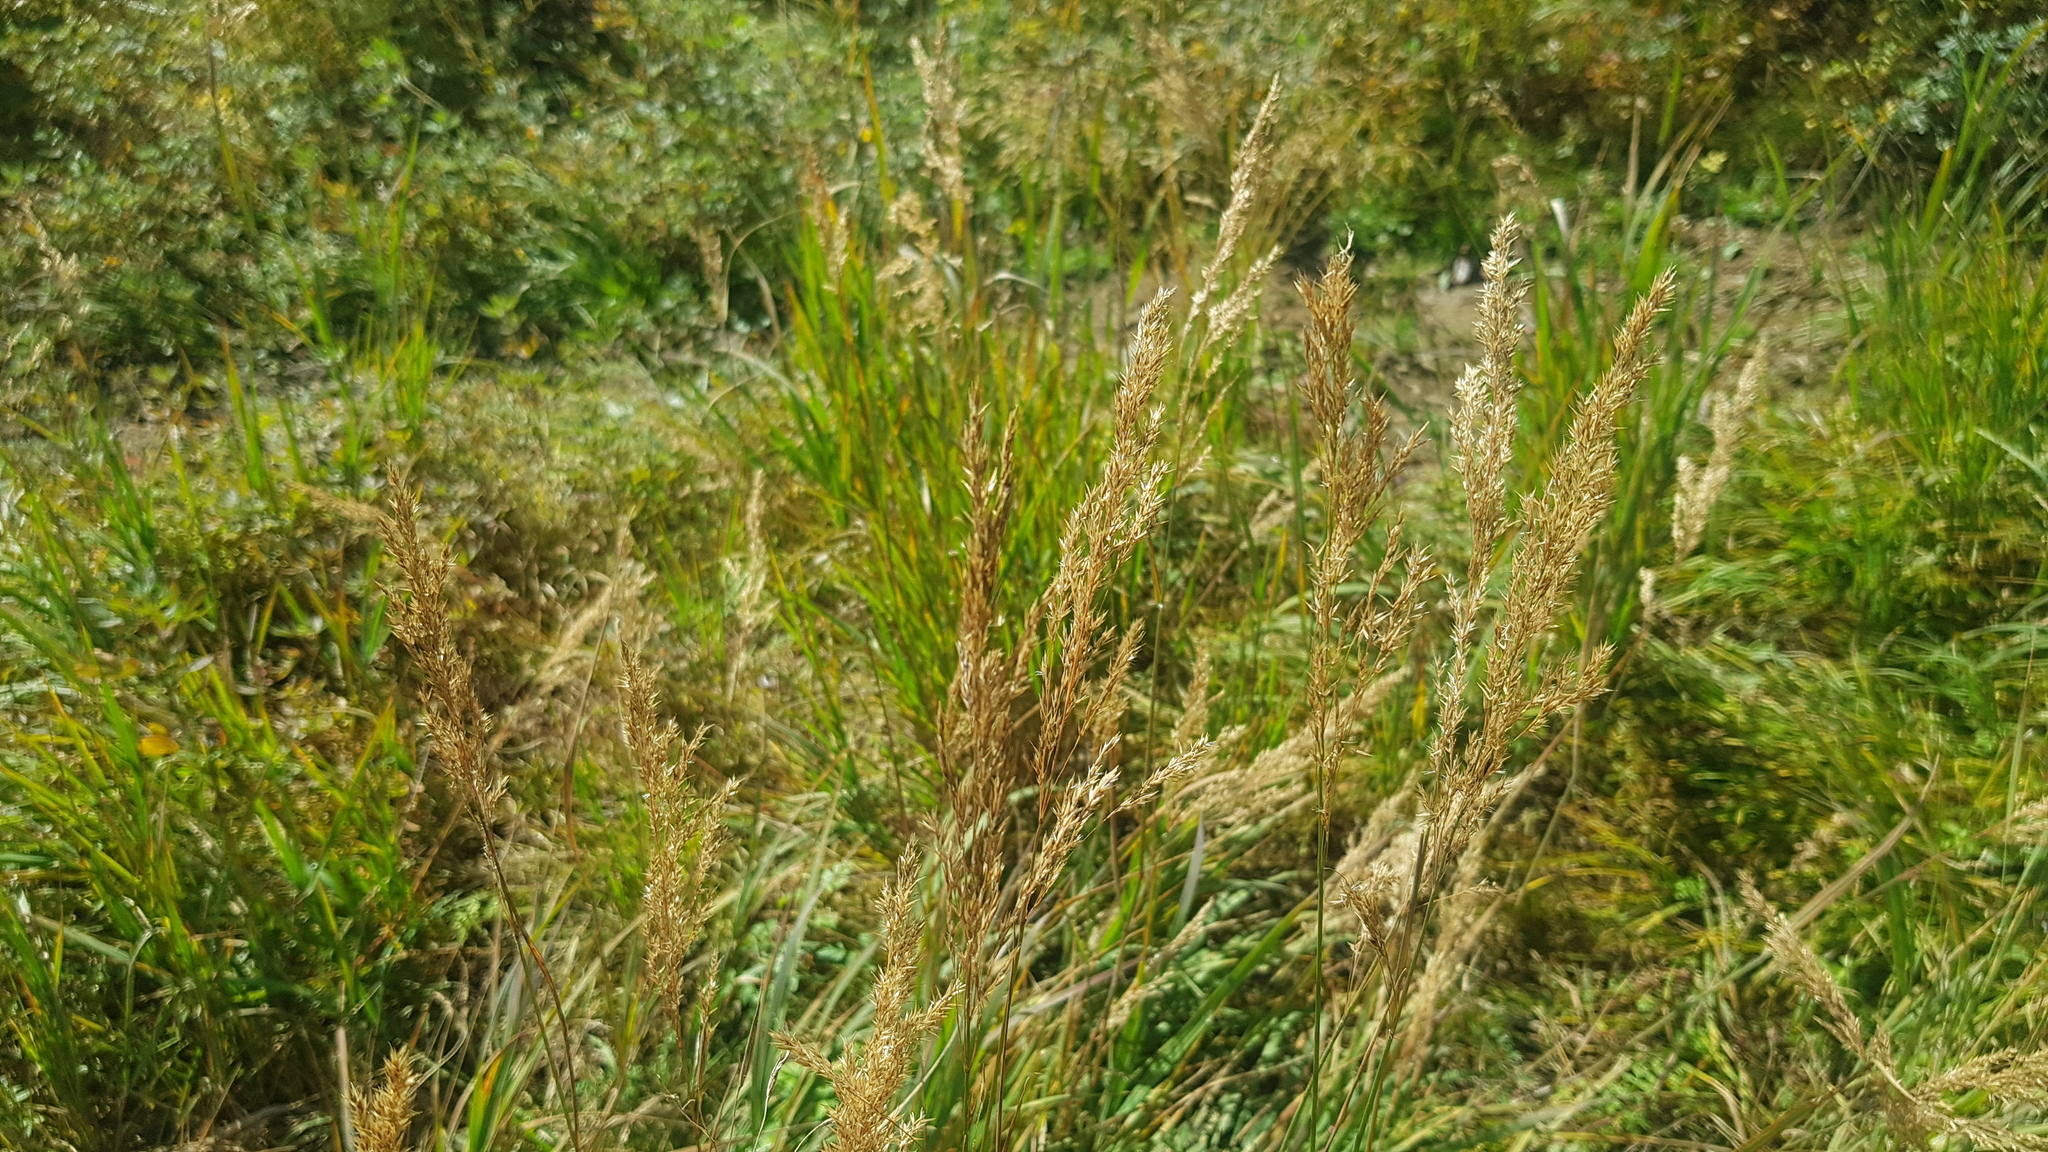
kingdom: Plantae
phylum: Tracheophyta
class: Liliopsida
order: Poales
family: Poaceae
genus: Koeleria
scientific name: Koeleria macrantha
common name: Crested hair-grass
